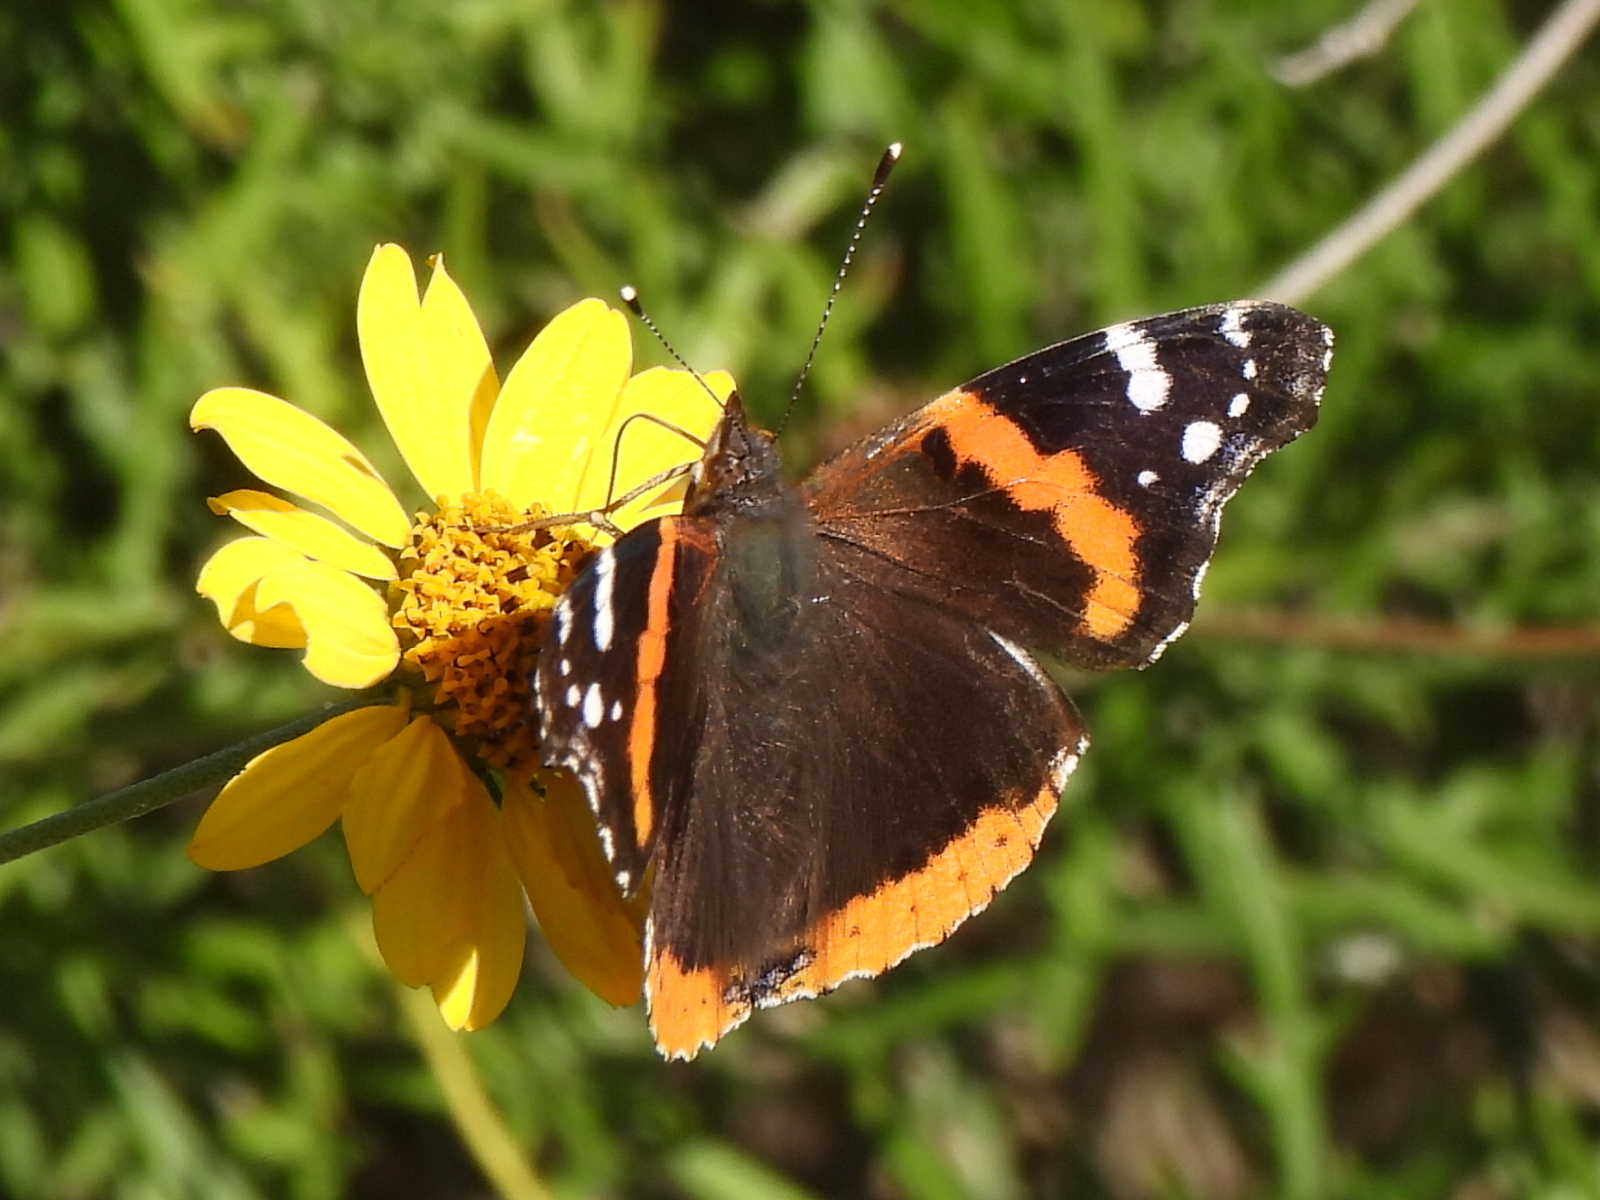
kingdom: Animalia
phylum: Arthropoda
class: Insecta
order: Lepidoptera
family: Nymphalidae
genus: Vanessa
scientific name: Vanessa atalanta
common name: Red admiral
